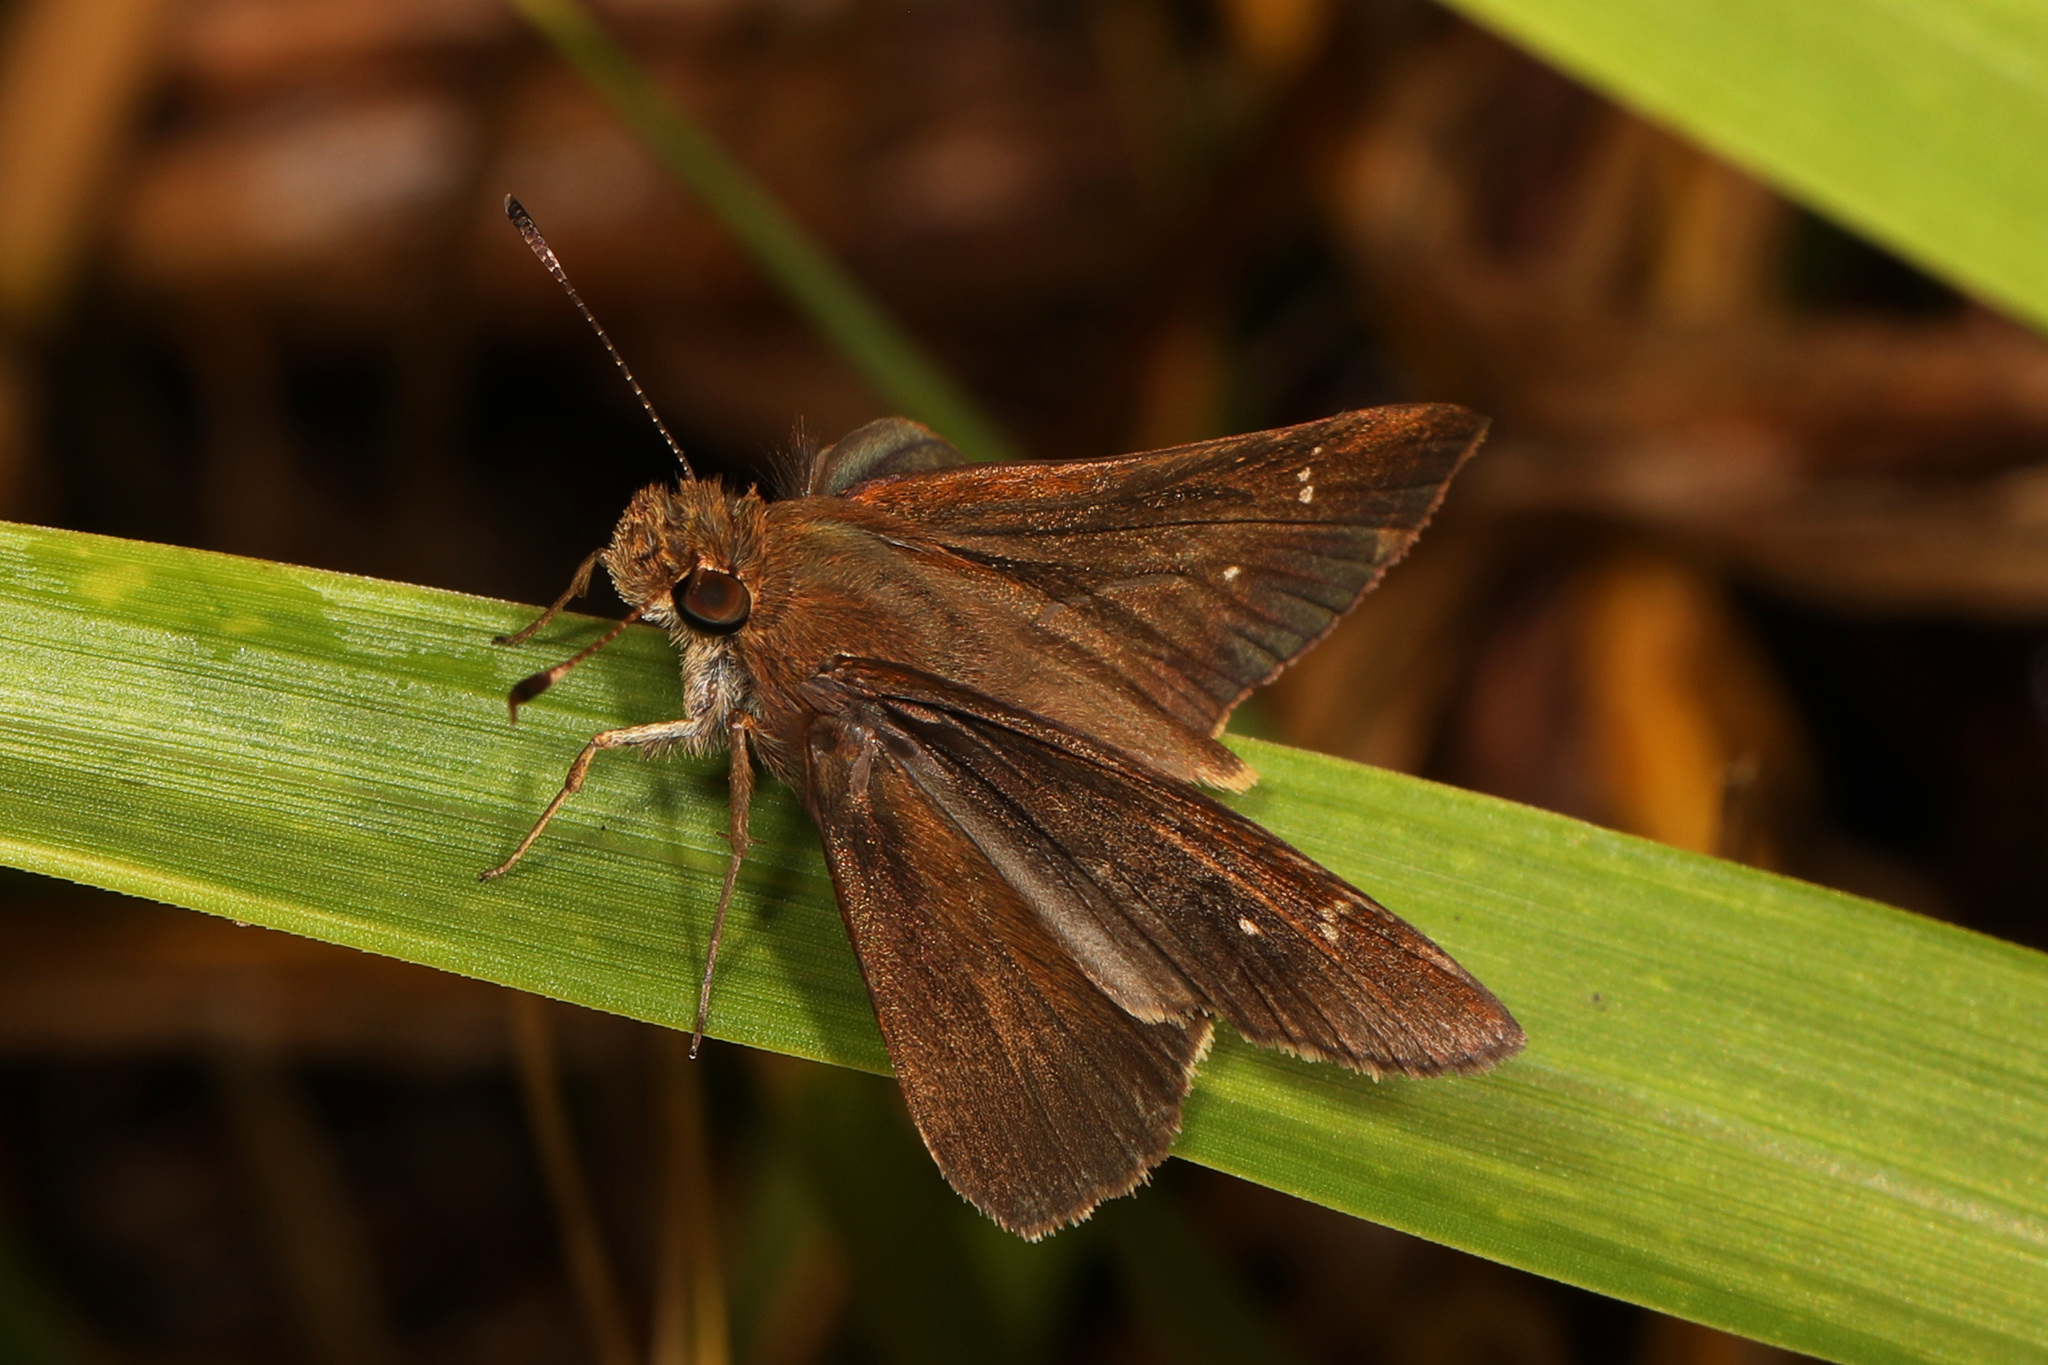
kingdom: Animalia
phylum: Arthropoda
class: Insecta
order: Lepidoptera
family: Hesperiidae
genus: Lerema
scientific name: Lerema accius
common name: Clouded skipper
